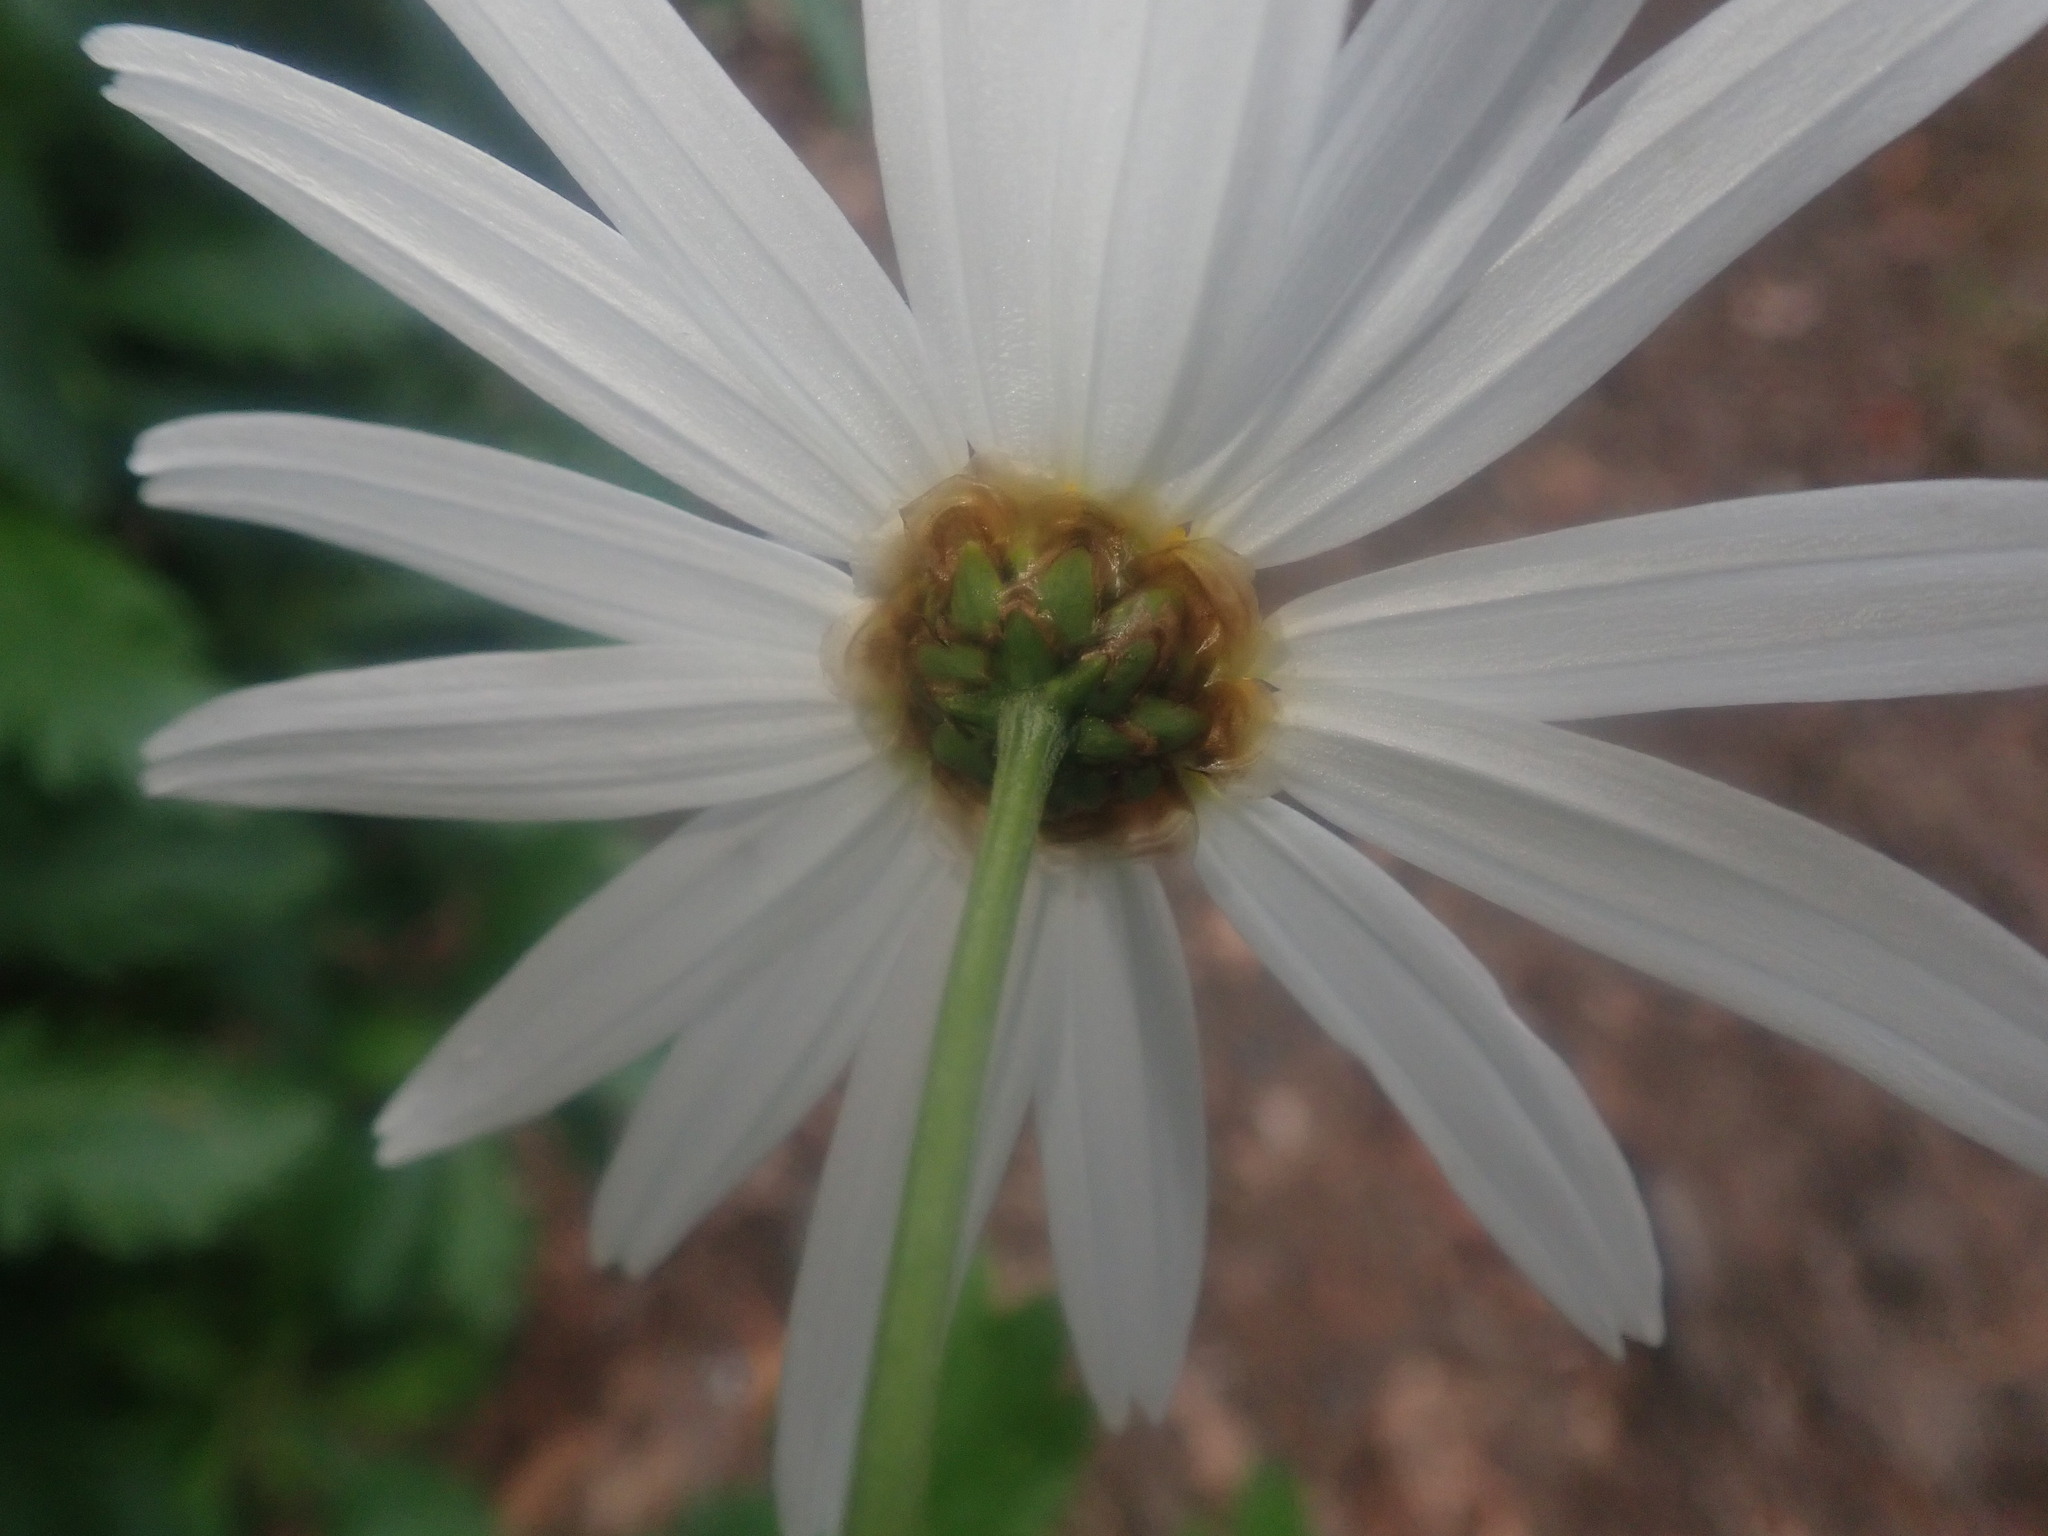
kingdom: Plantae
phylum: Tracheophyta
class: Magnoliopsida
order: Asterales
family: Asteraceae
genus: Argyranthemum
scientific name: Argyranthemum pinnatifidum
